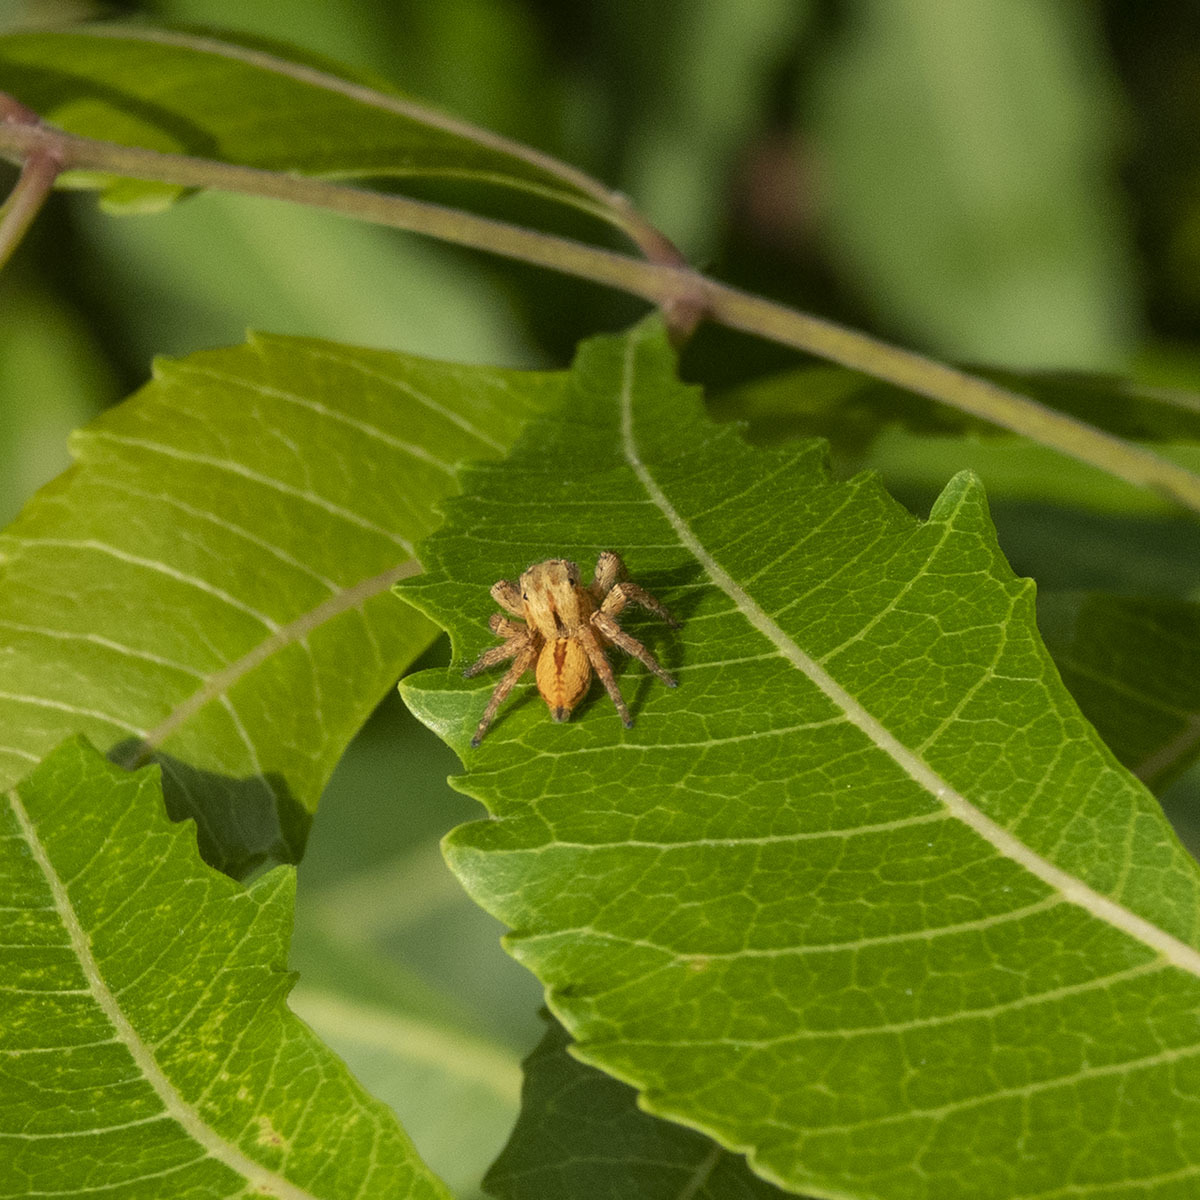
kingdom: Animalia
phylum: Arthropoda
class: Arachnida
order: Araneae
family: Salticidae
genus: Carrhotus
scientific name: Carrhotus viduus
